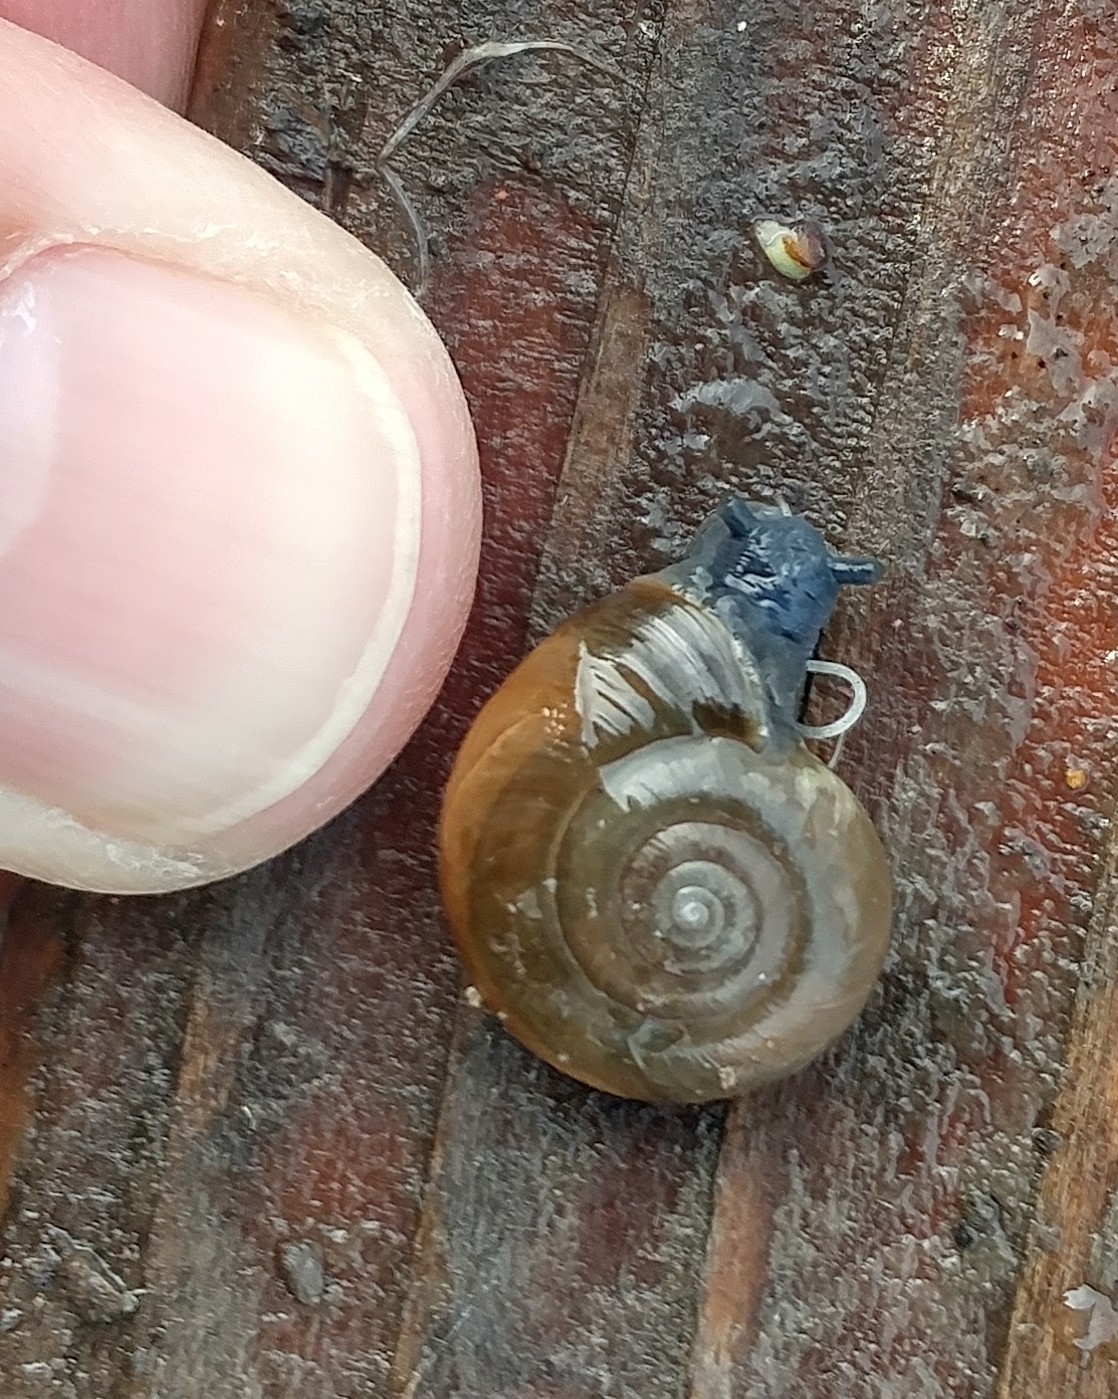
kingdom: Animalia
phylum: Mollusca
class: Gastropoda
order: Stylommatophora
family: Oxychilidae
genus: Oxychilus
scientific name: Oxychilus
